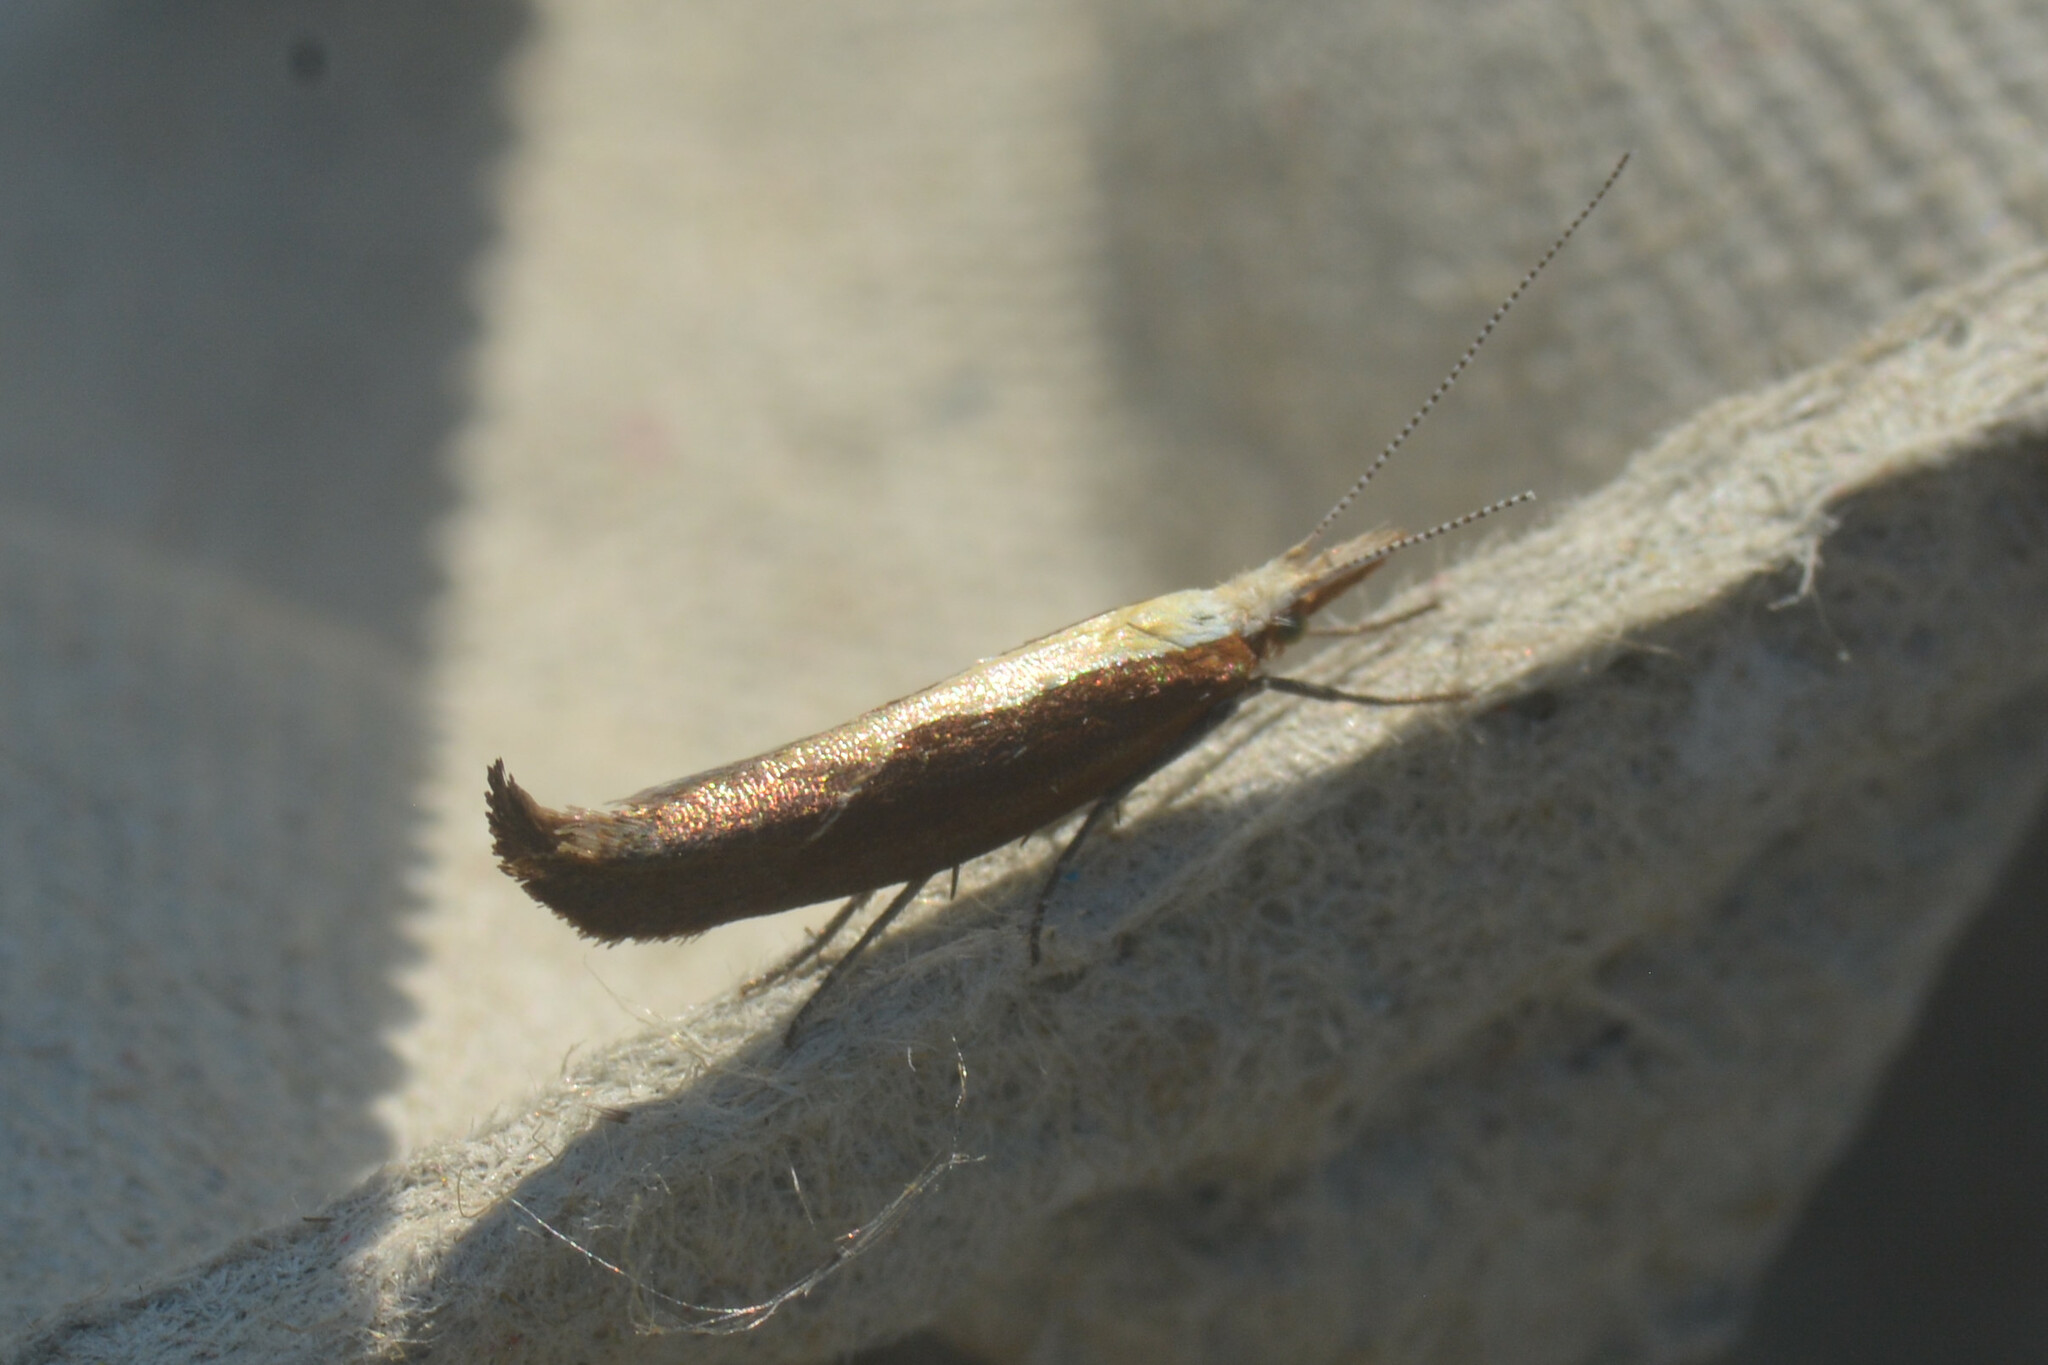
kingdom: Animalia
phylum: Arthropoda
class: Insecta
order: Lepidoptera
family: Ypsolophidae
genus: Ypsolopha
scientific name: Ypsolopha dentella
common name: Honeysuckle moth
